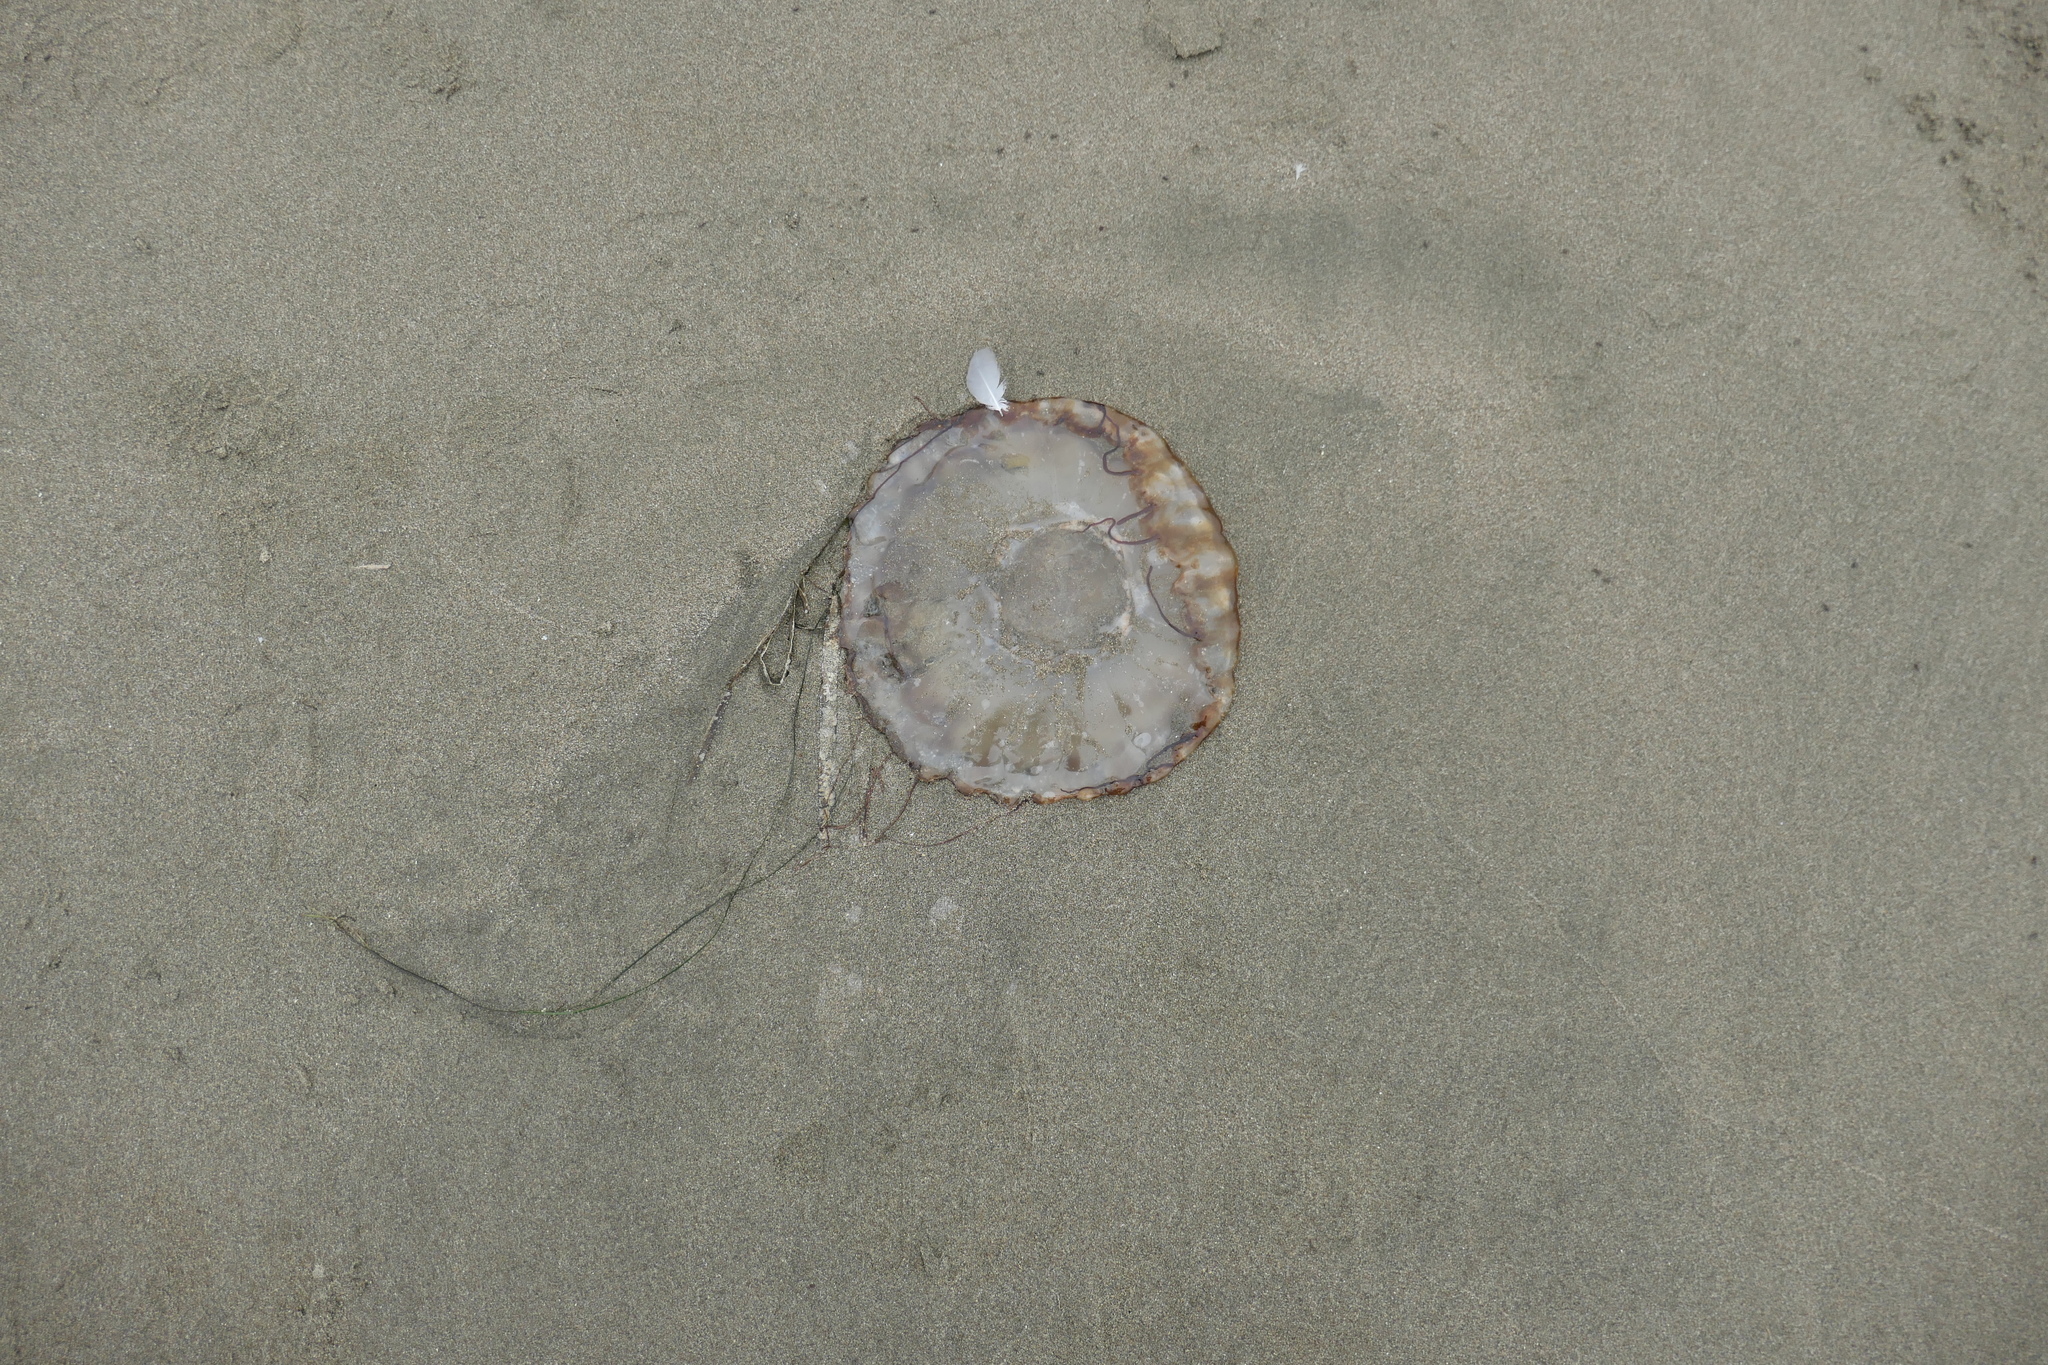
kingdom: Animalia
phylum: Cnidaria
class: Scyphozoa
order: Semaeostomeae
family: Pelagiidae
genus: Chrysaora
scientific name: Chrysaora fuscescens
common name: Sea nettle
